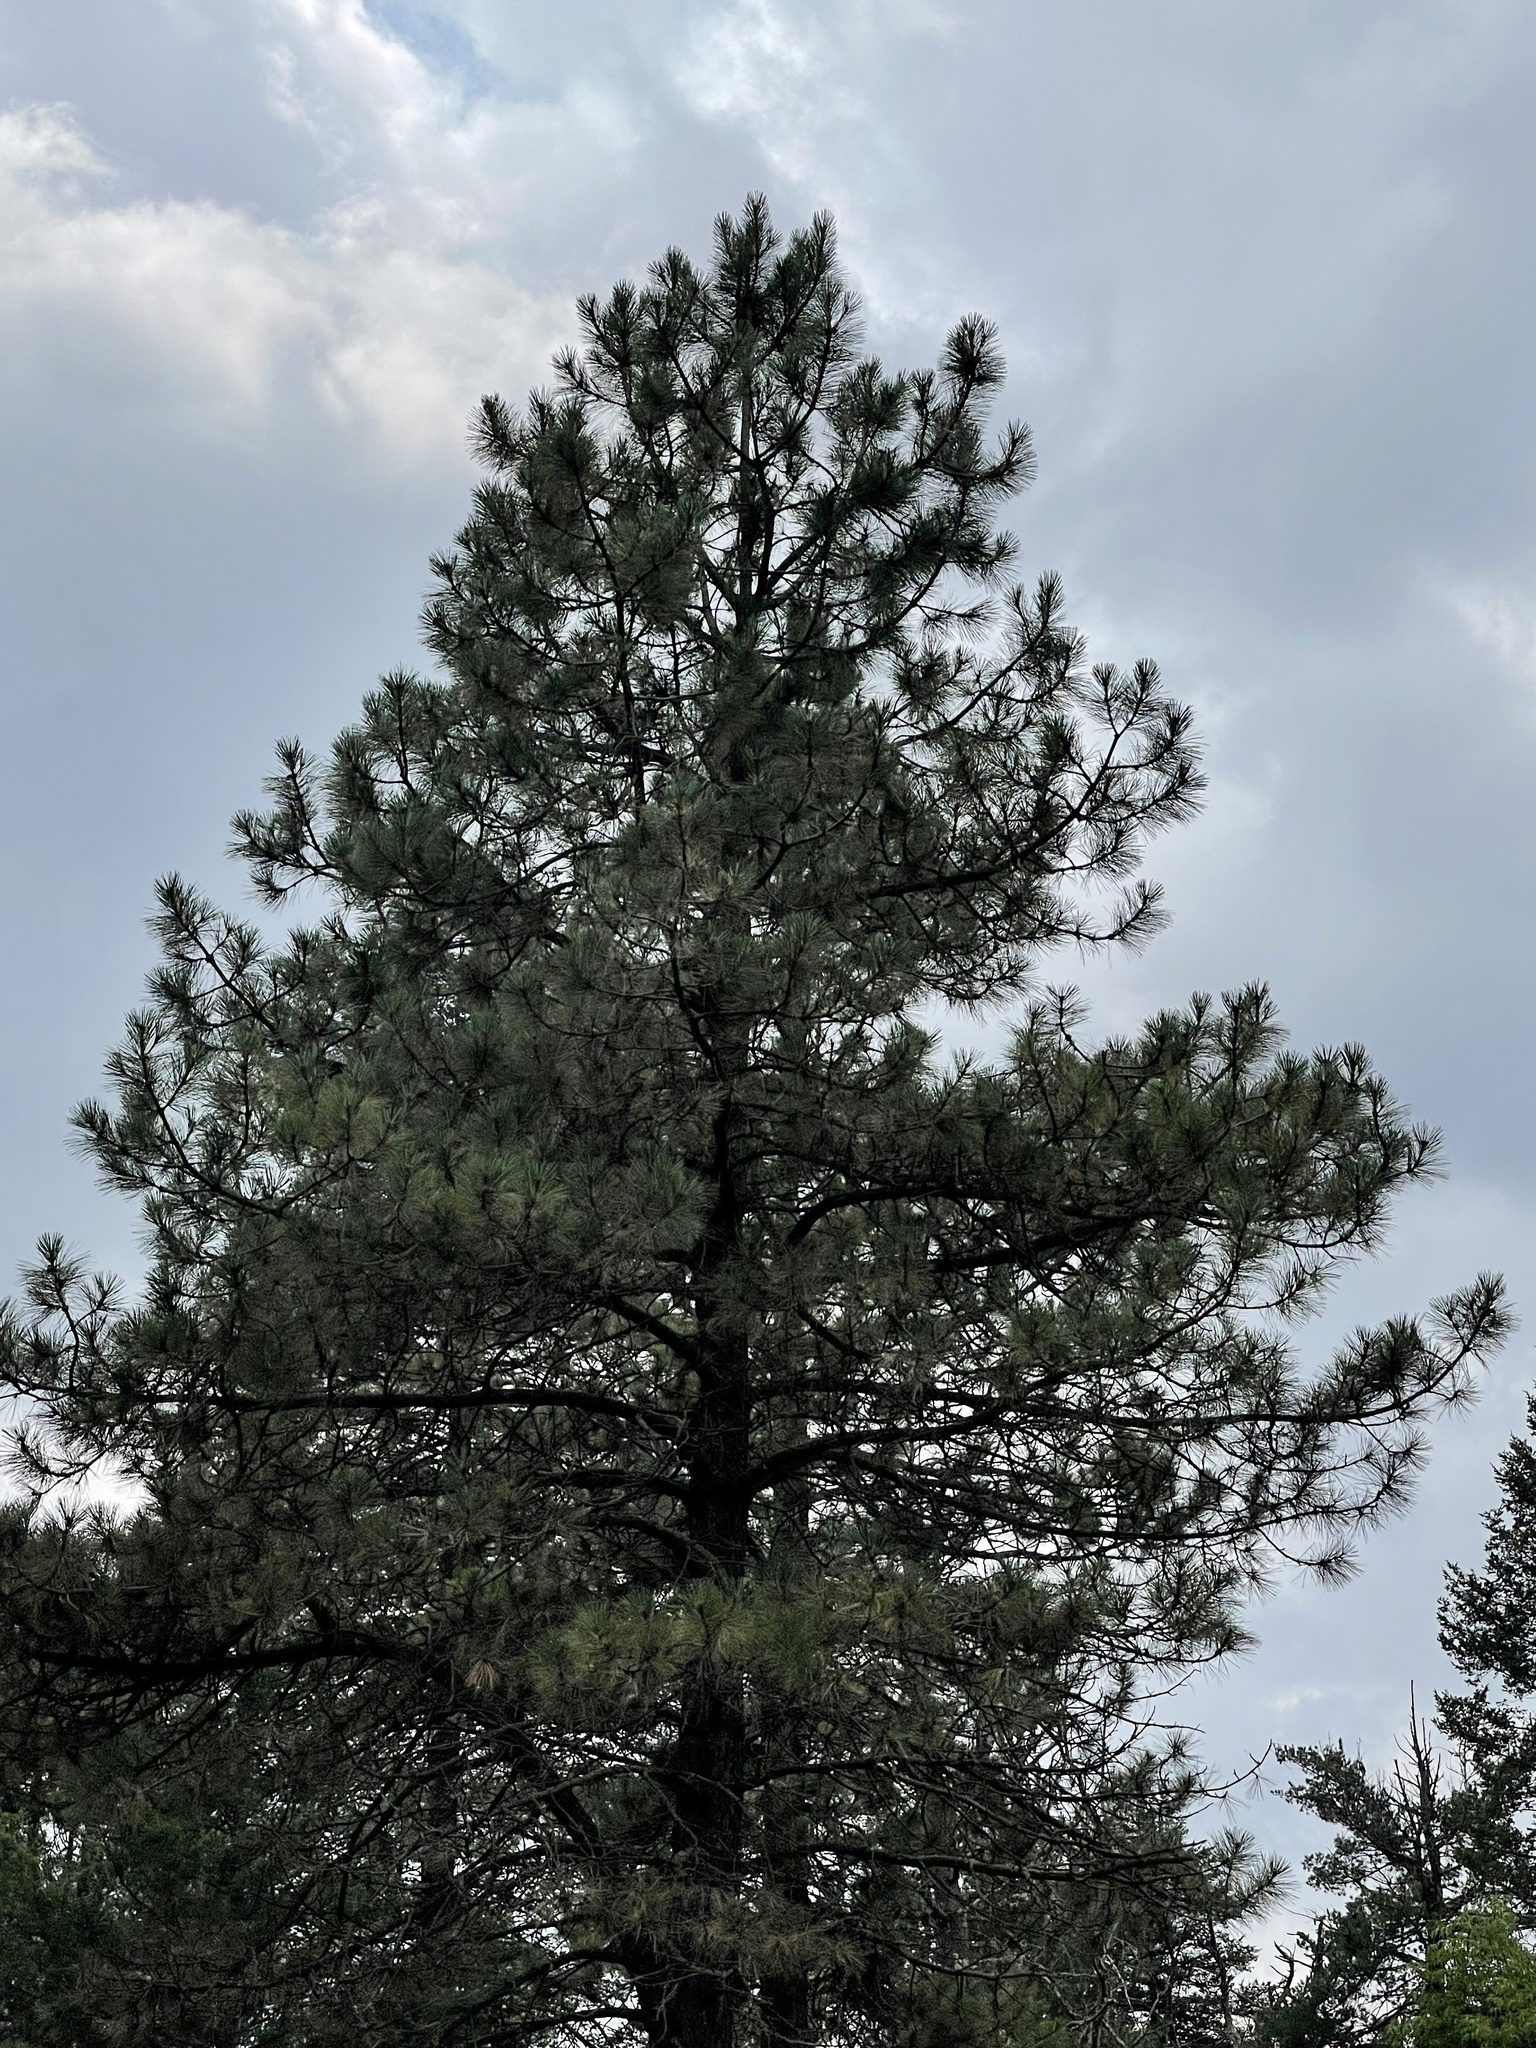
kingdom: Plantae
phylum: Tracheophyta
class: Pinopsida
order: Pinales
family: Pinaceae
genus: Pinus
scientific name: Pinus ponderosa
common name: Western yellow-pine
